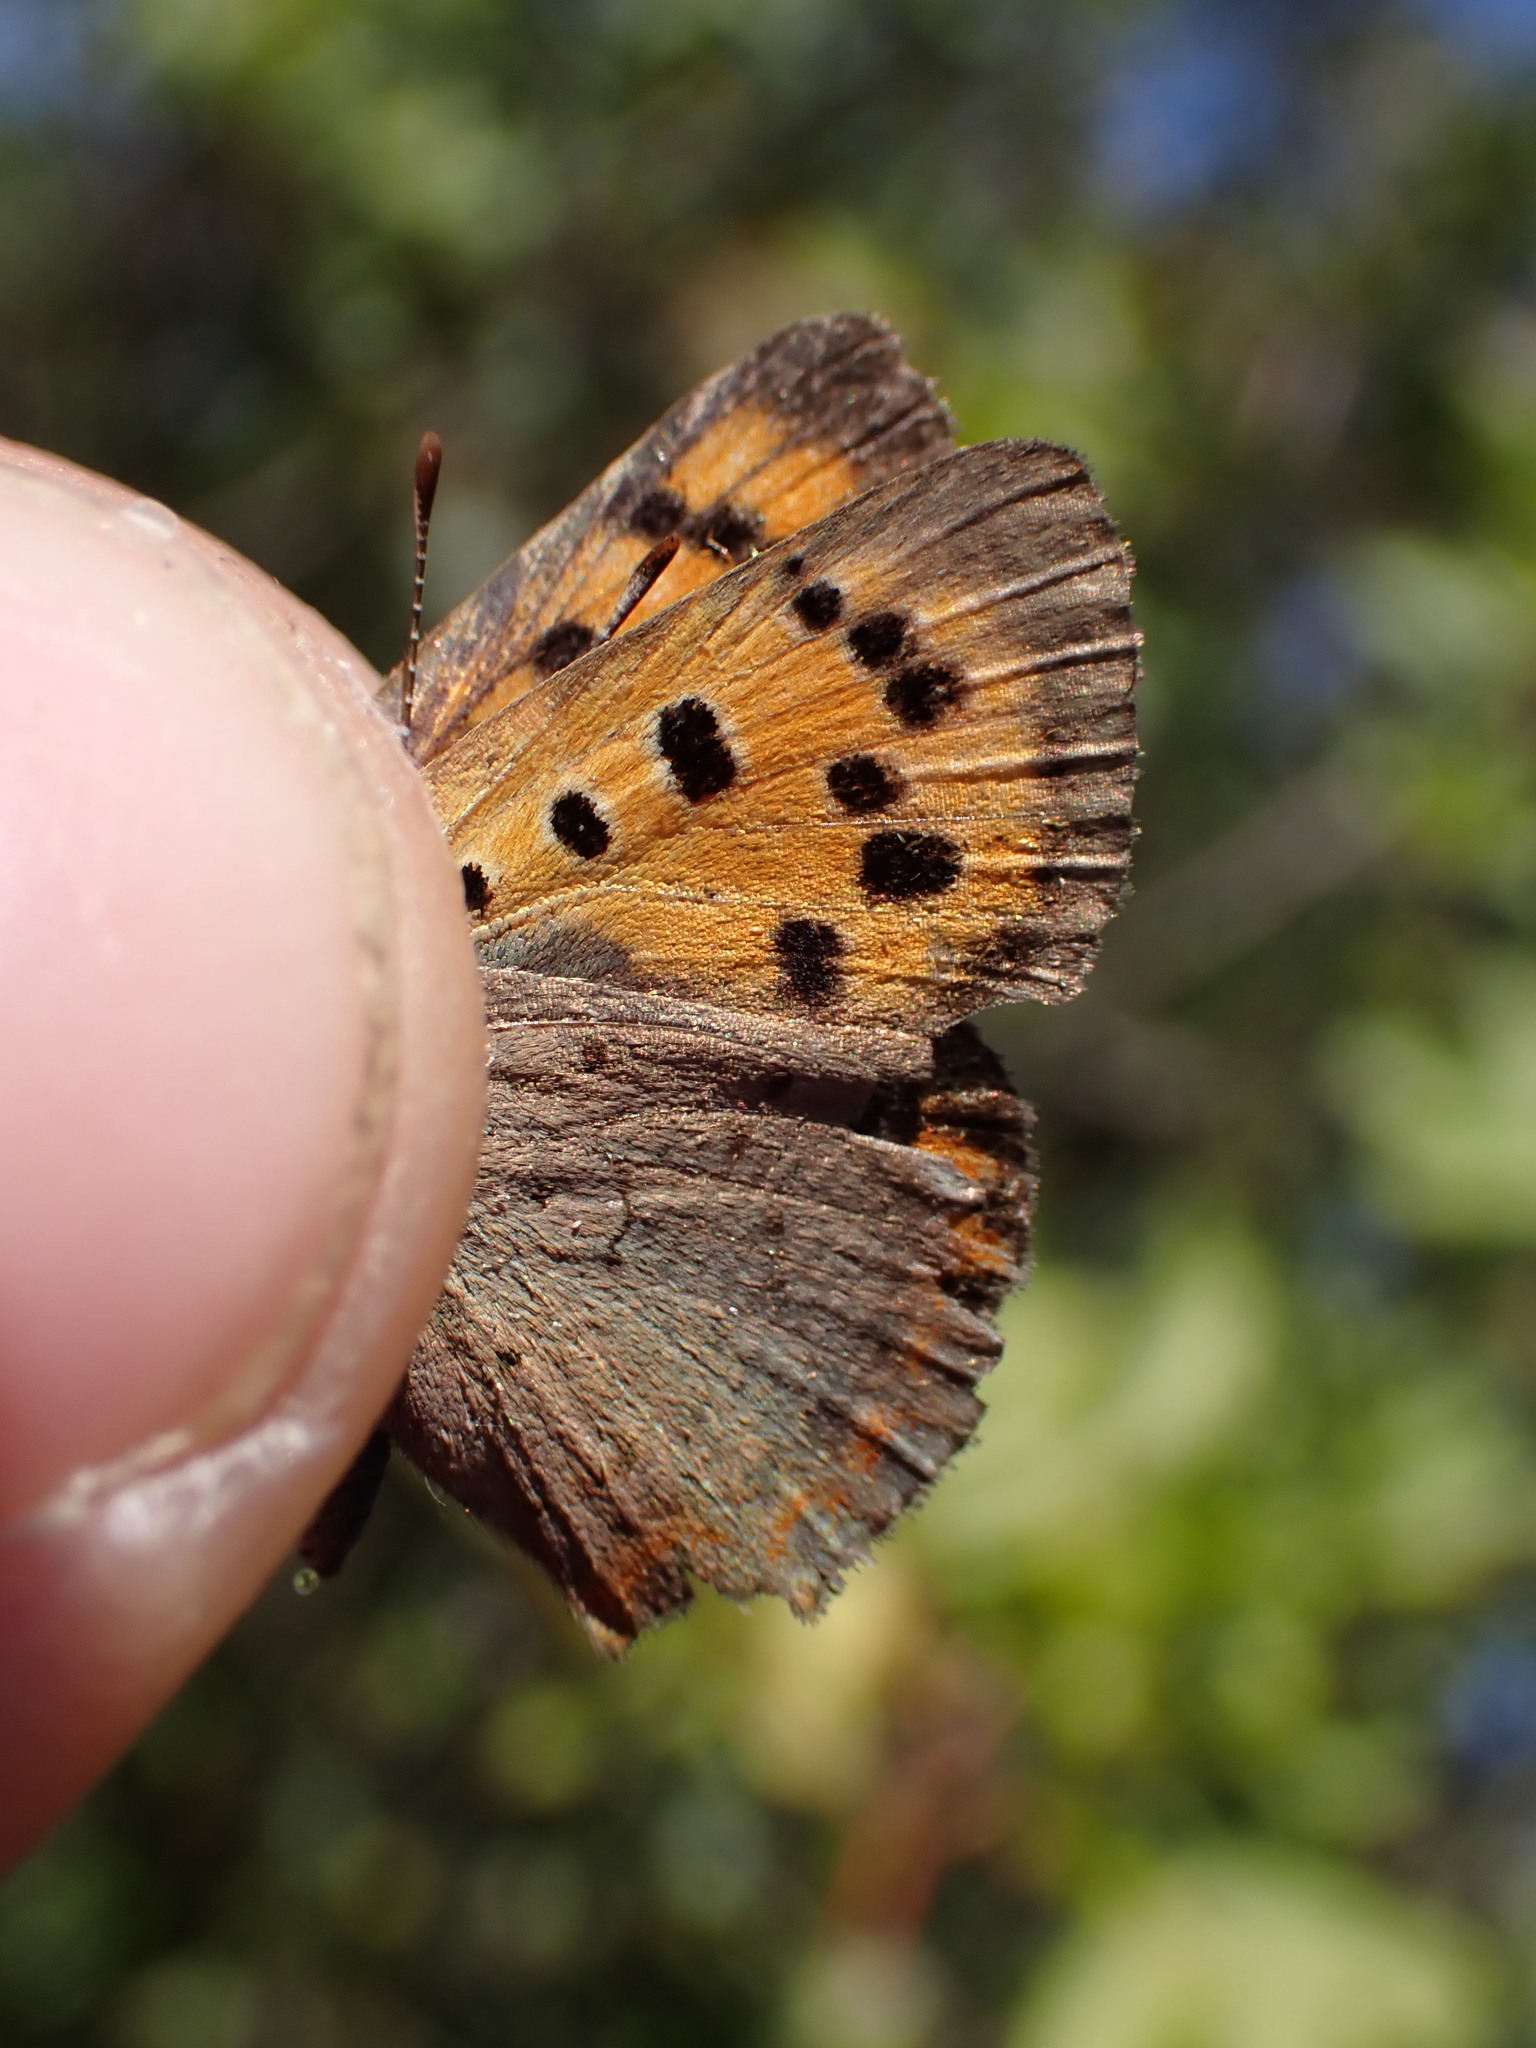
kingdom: Animalia
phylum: Arthropoda
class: Insecta
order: Lepidoptera
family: Lycaenidae
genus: Lycaena
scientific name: Lycaena phlaeas
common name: Small copper
